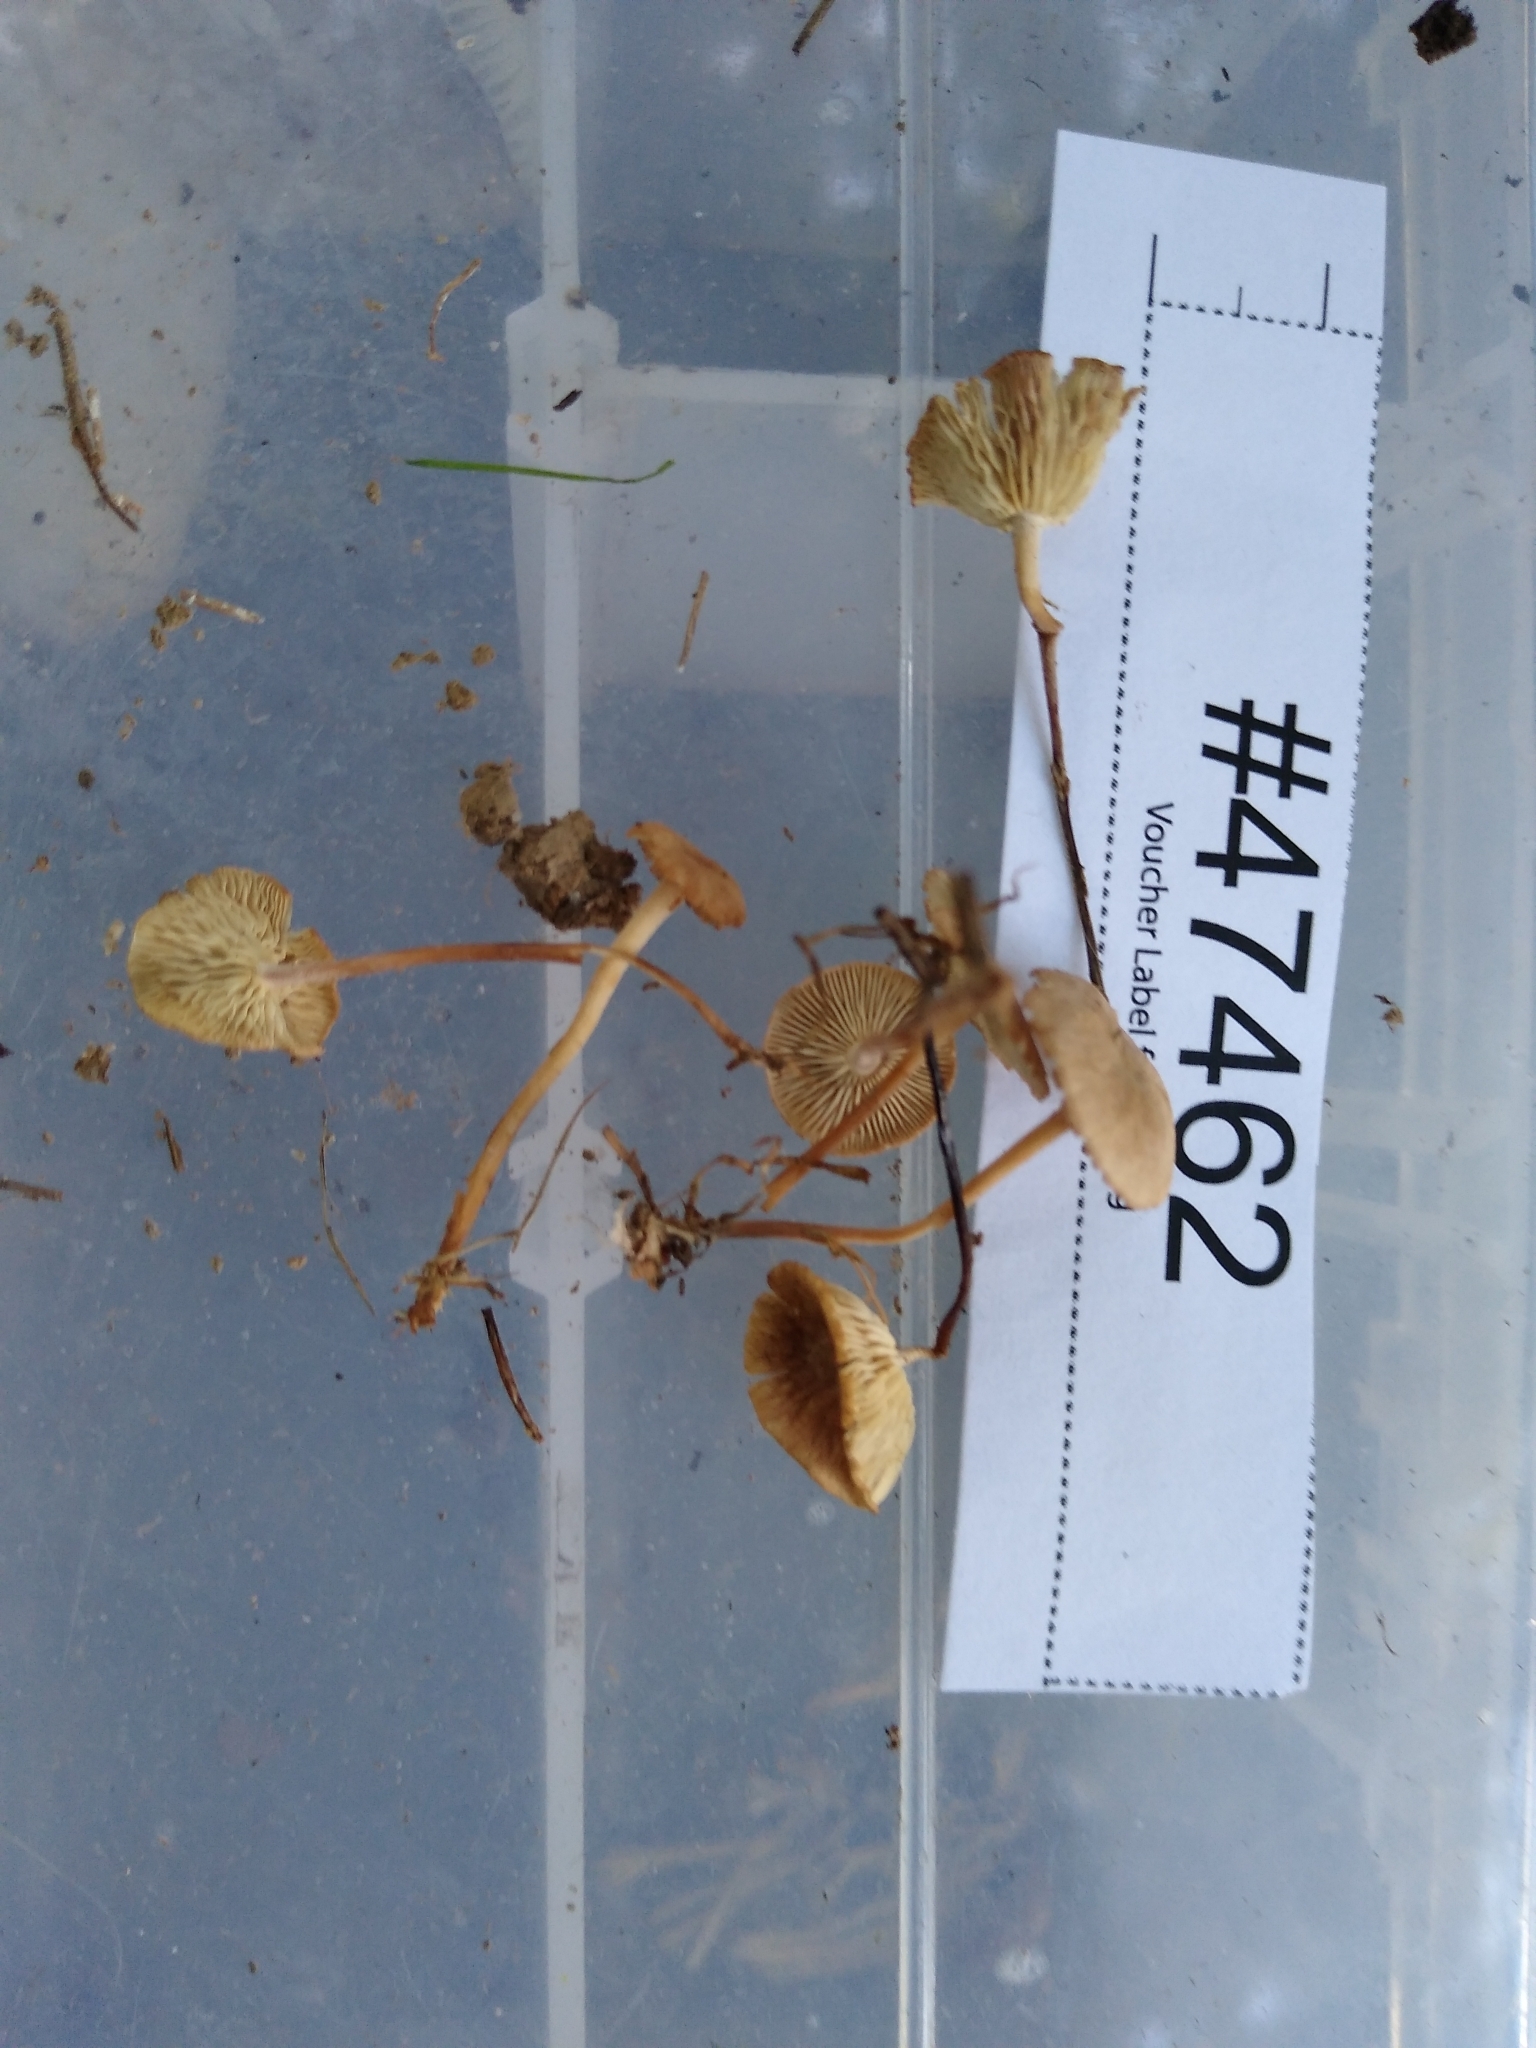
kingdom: Fungi
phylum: Basidiomycota
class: Agaricomycetes
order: Agaricales
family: Omphalotaceae
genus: Collybiopsis
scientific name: Collybiopsis subcyathiformis
